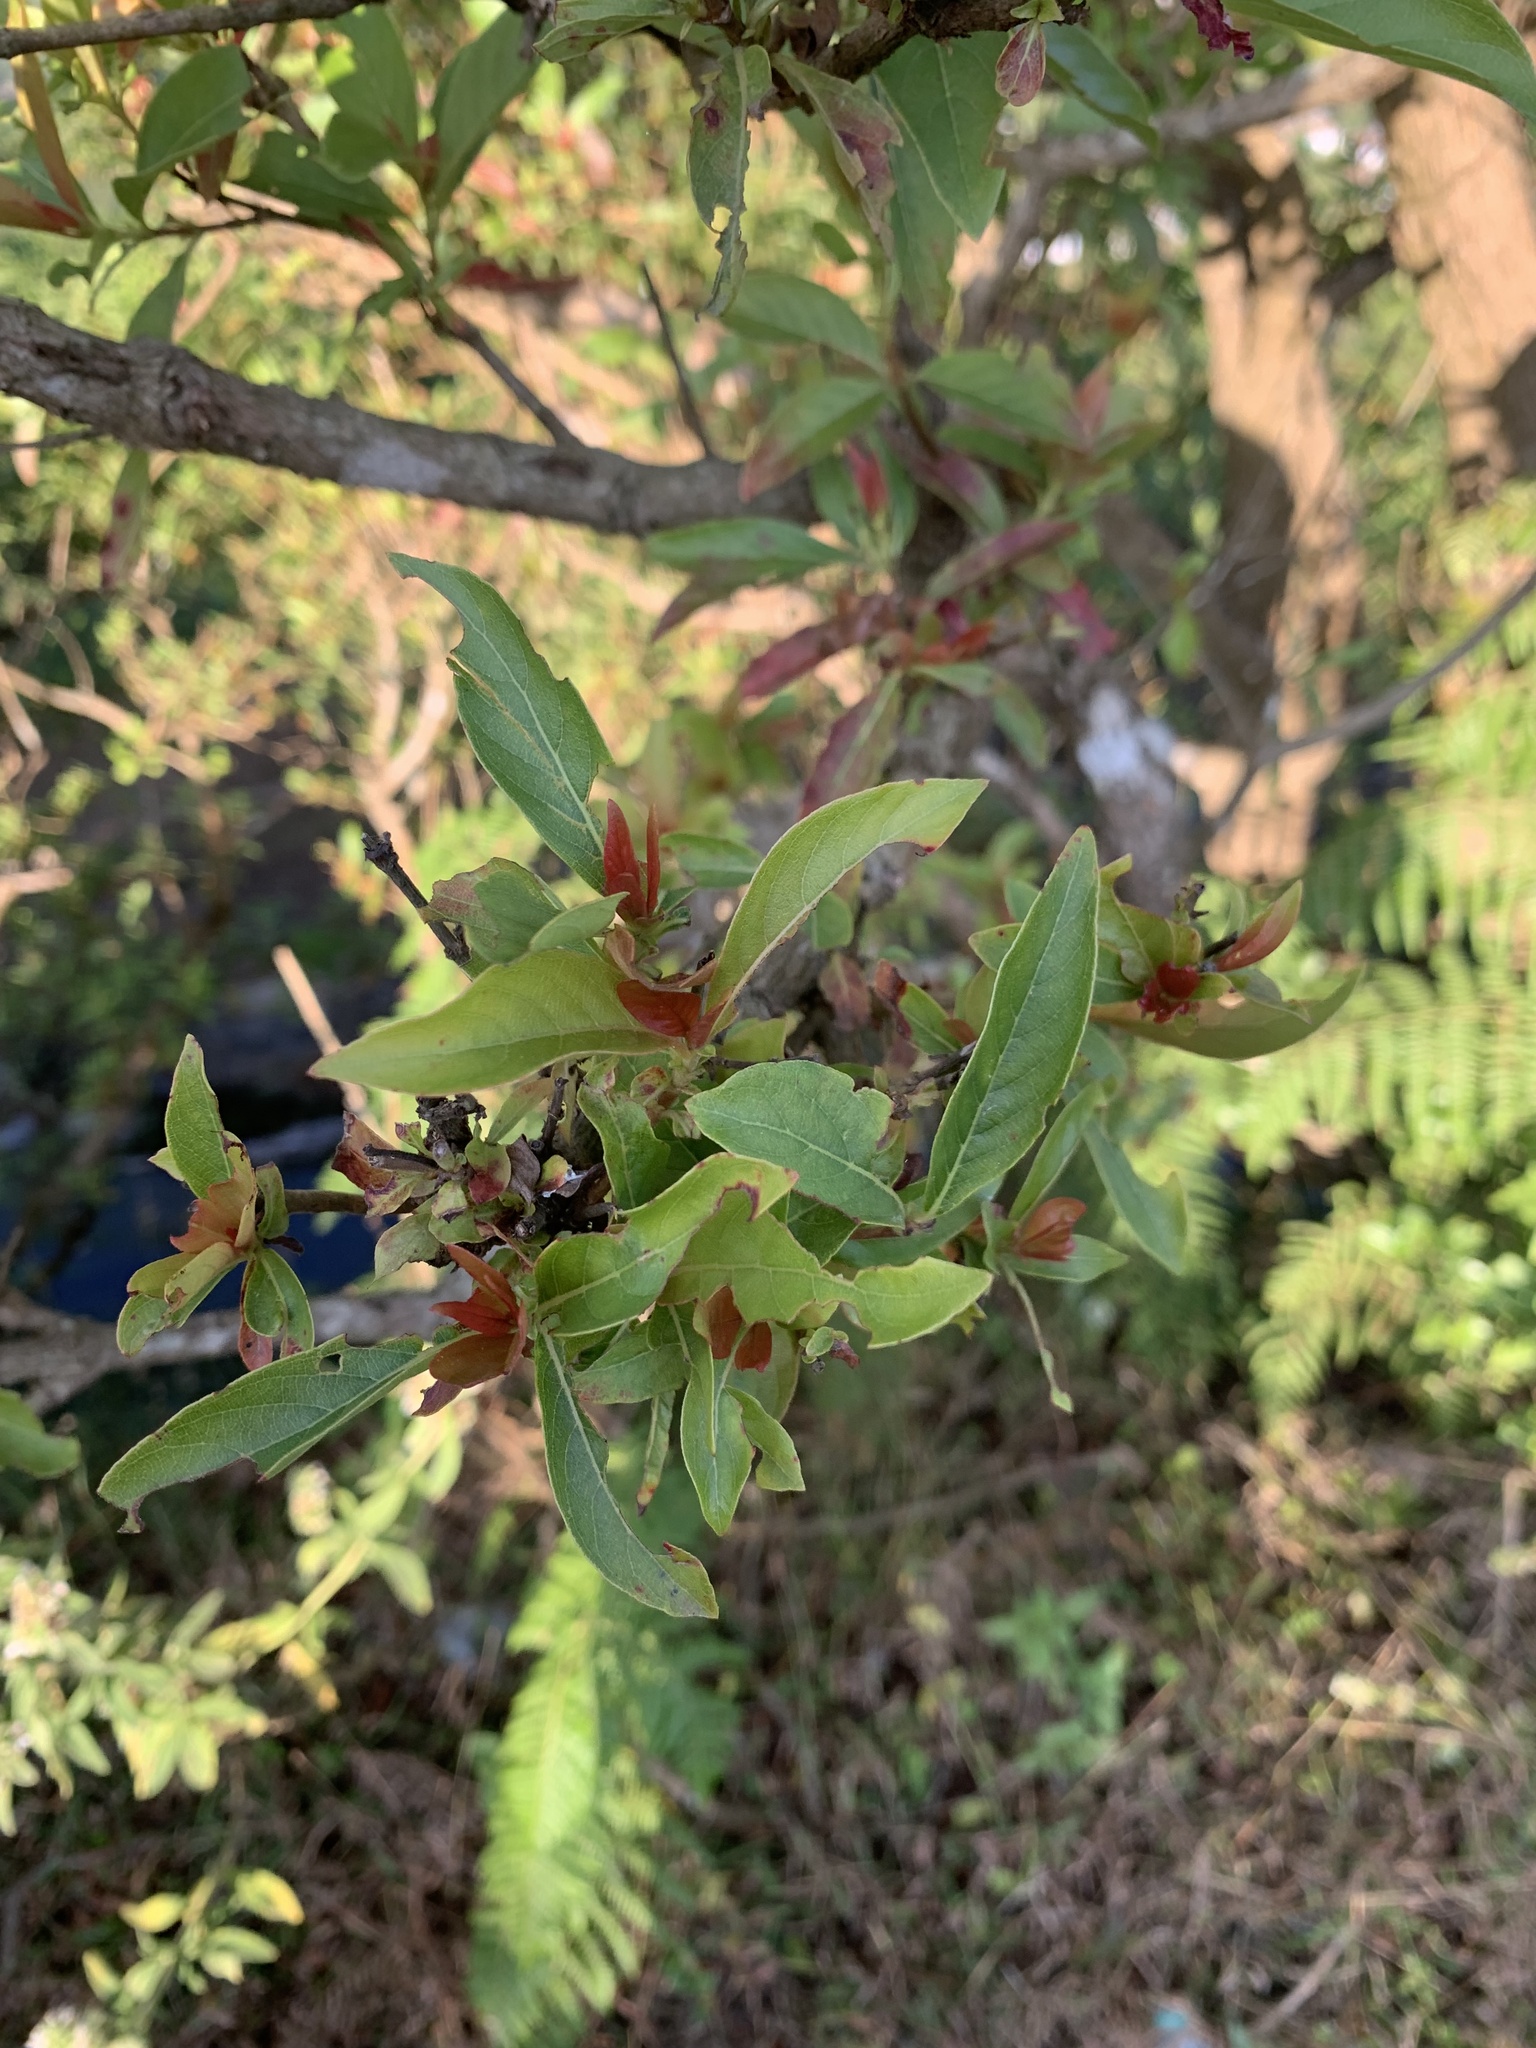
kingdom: Plantae
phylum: Tracheophyta
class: Magnoliopsida
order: Gentianales
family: Rubiaceae
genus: Wendlandia
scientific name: Wendlandia thyrsoidea
